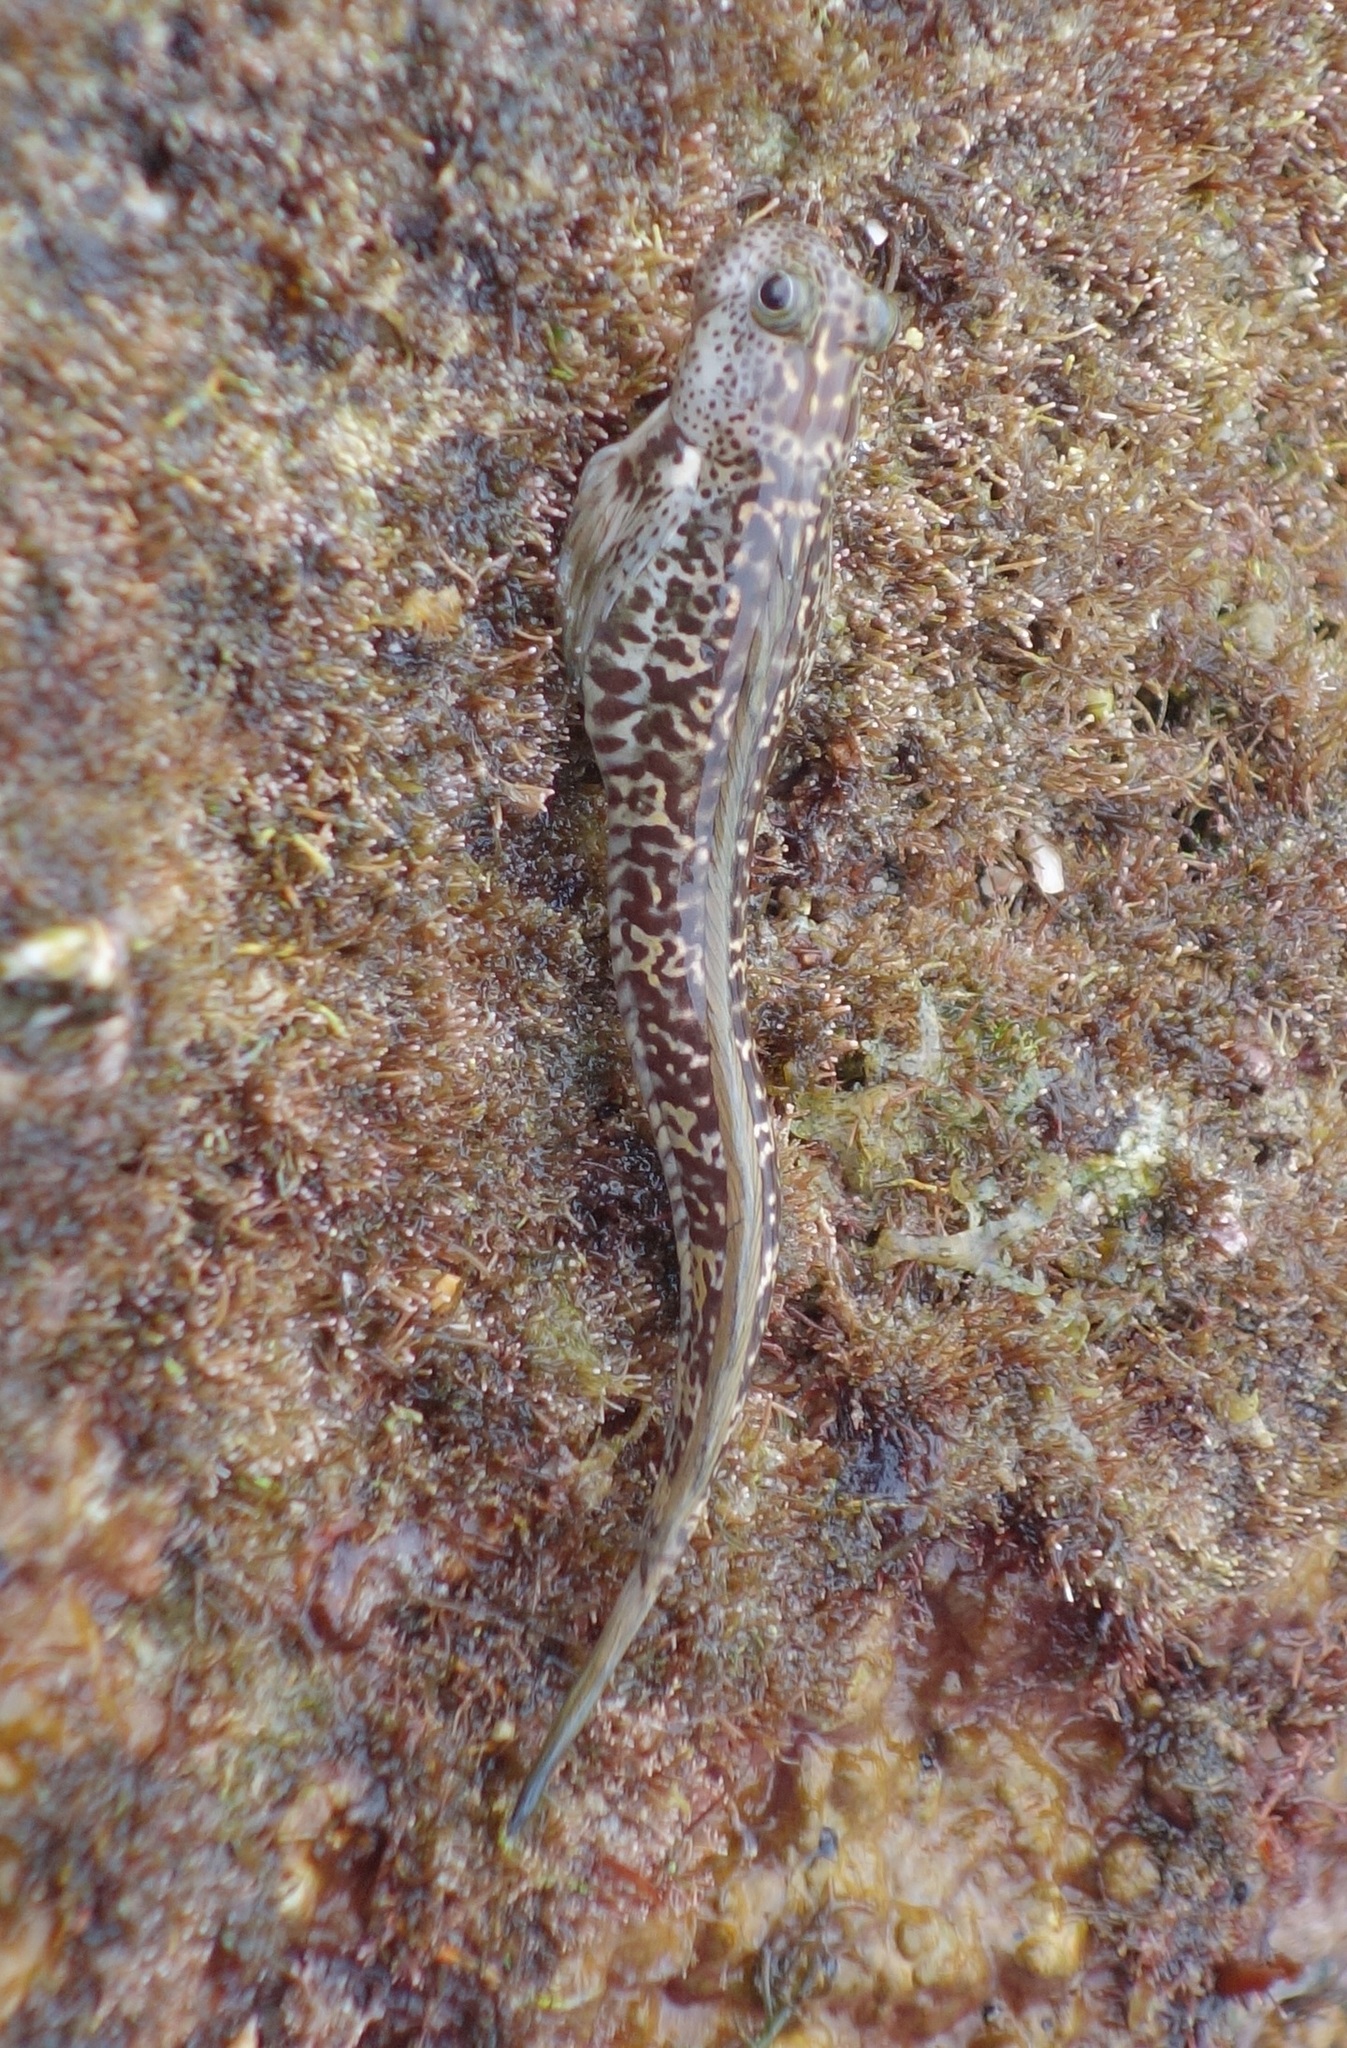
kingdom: Animalia
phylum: Chordata
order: Perciformes
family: Blenniidae
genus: Andamia
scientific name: Andamia heteroptera
